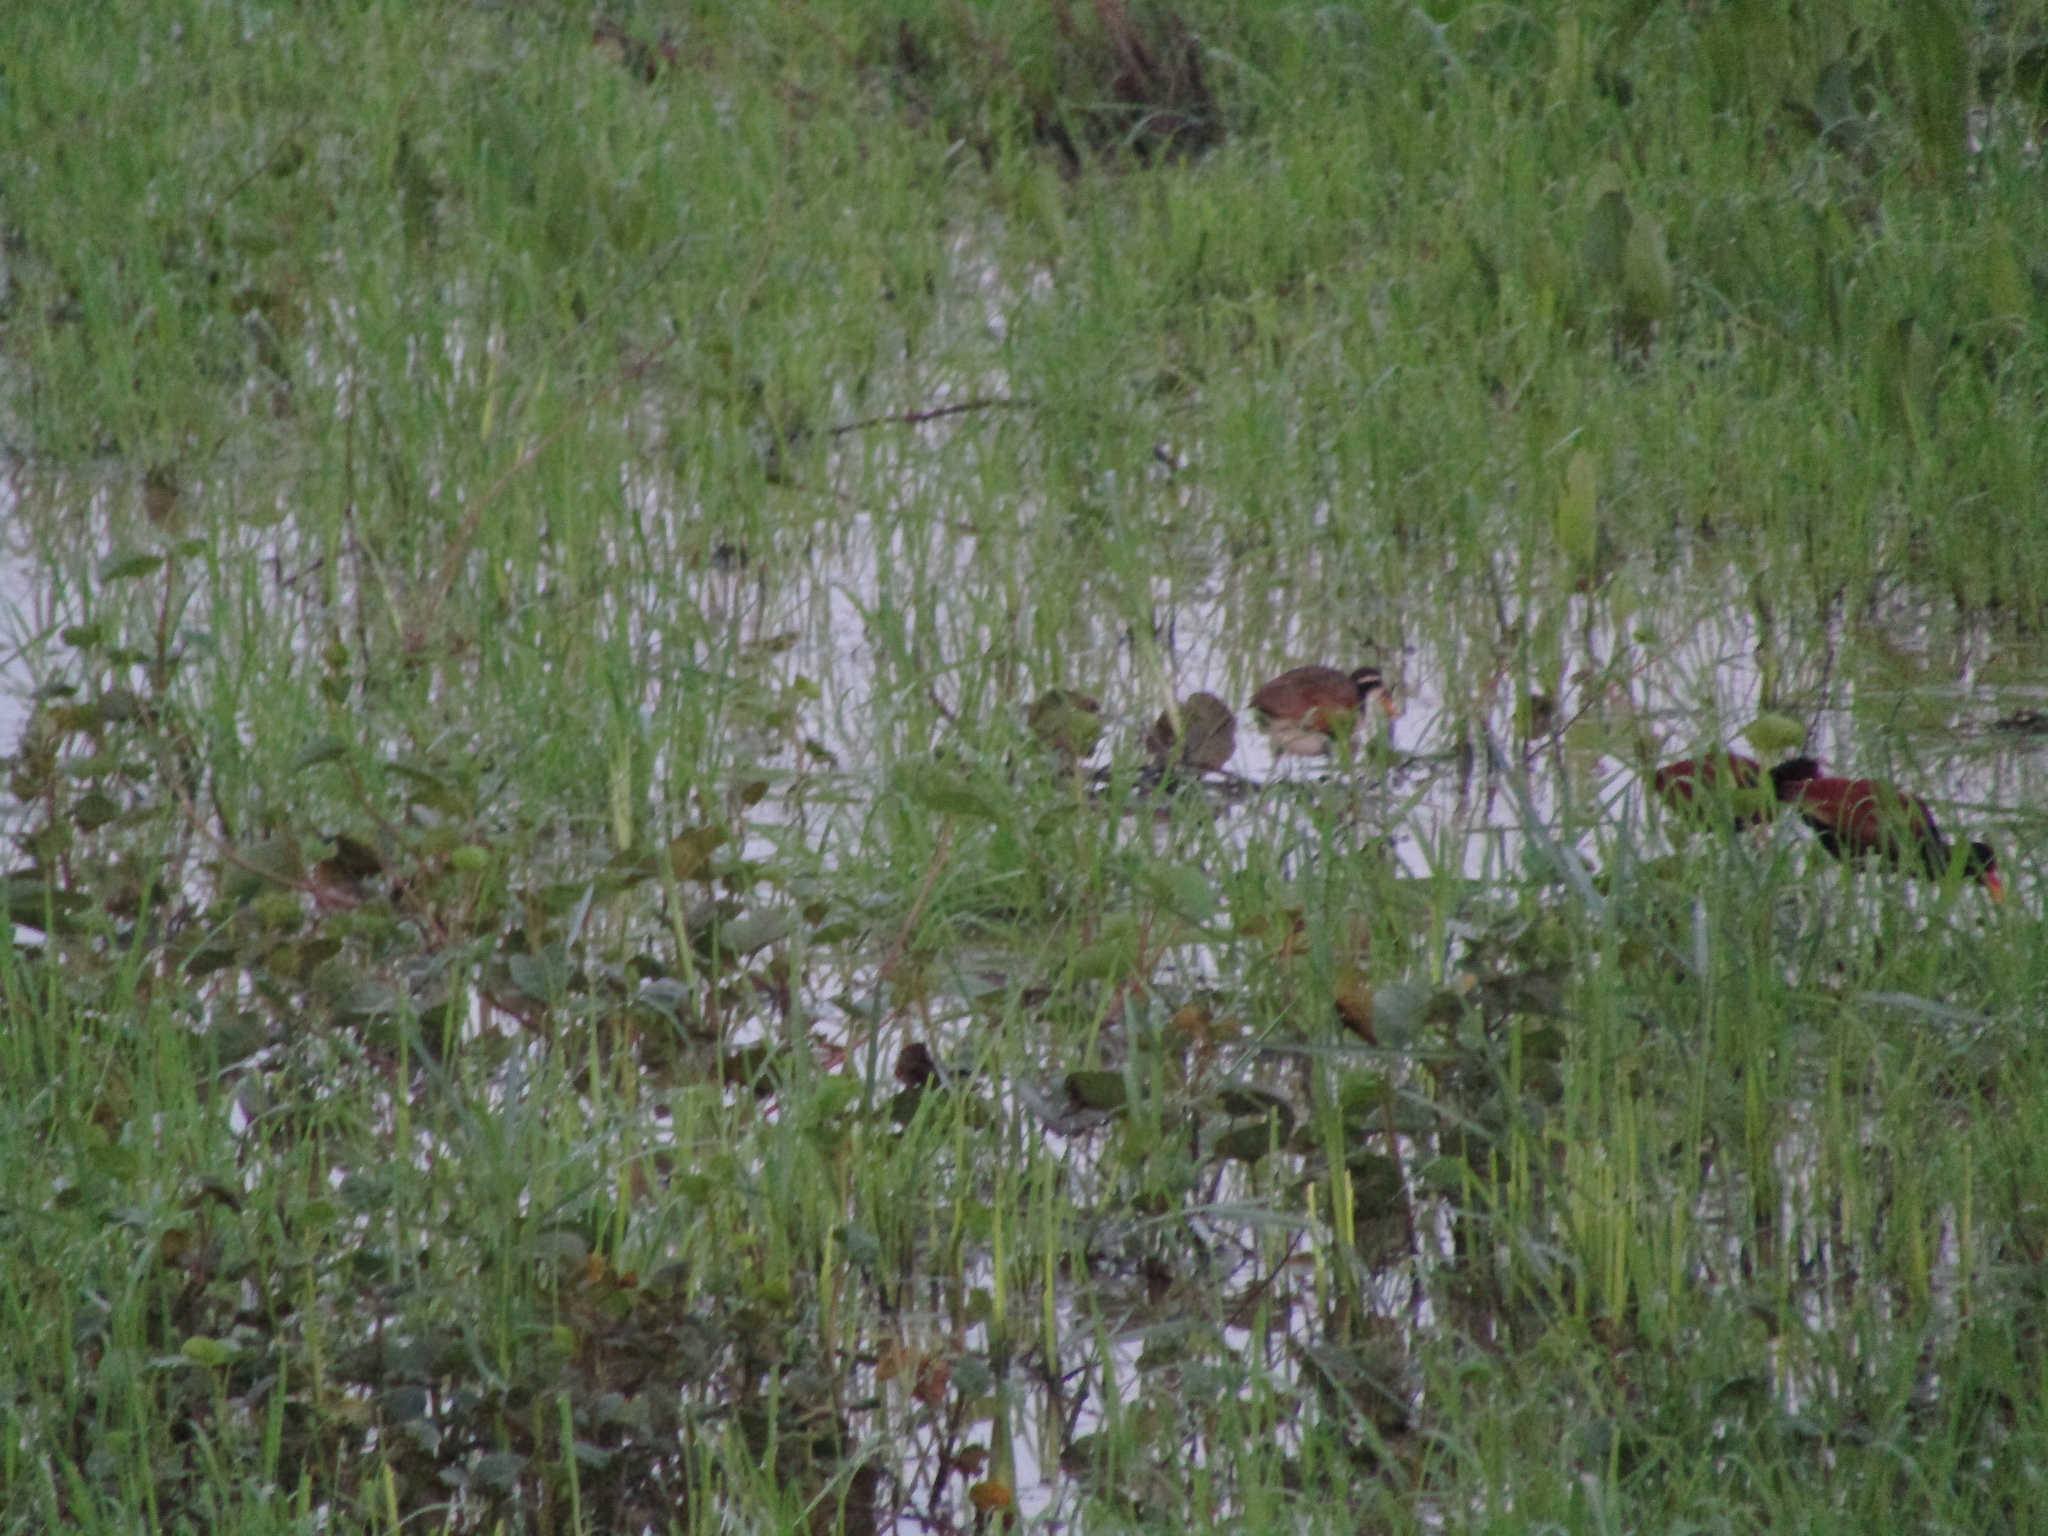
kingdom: Animalia
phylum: Chordata
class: Aves
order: Charadriiformes
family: Jacanidae
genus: Jacana
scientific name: Jacana jacana
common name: Wattled jacana
